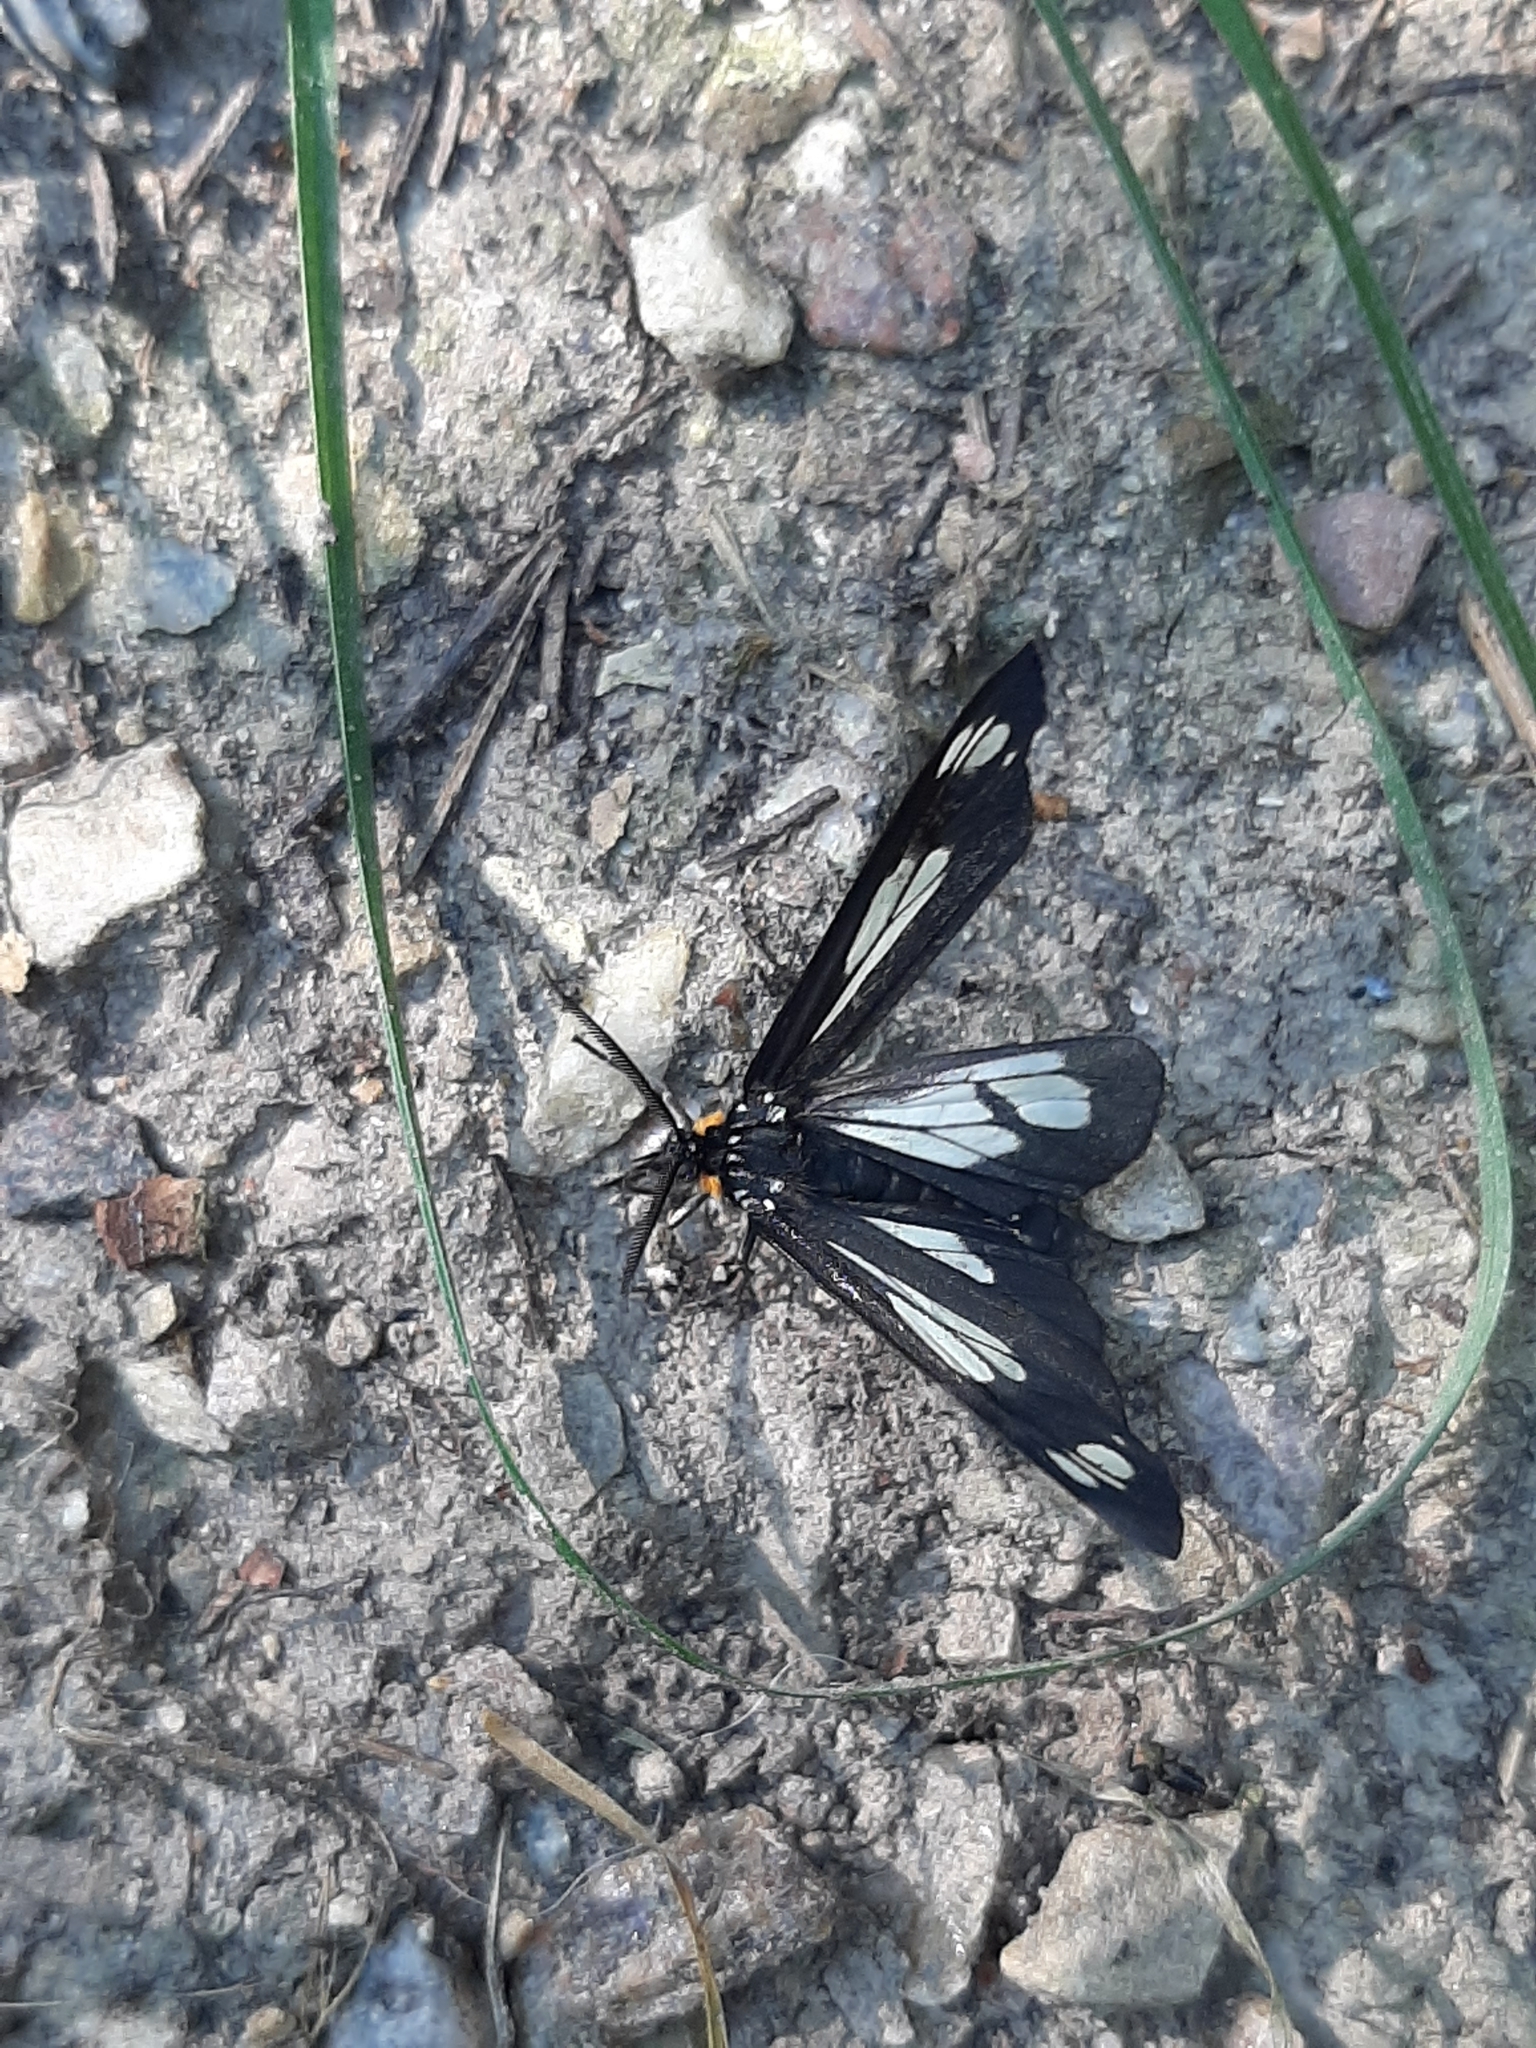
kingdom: Animalia
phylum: Arthropoda
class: Insecta
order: Lepidoptera
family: Erebidae
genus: Gnophaela
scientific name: Gnophaela vermiculata
